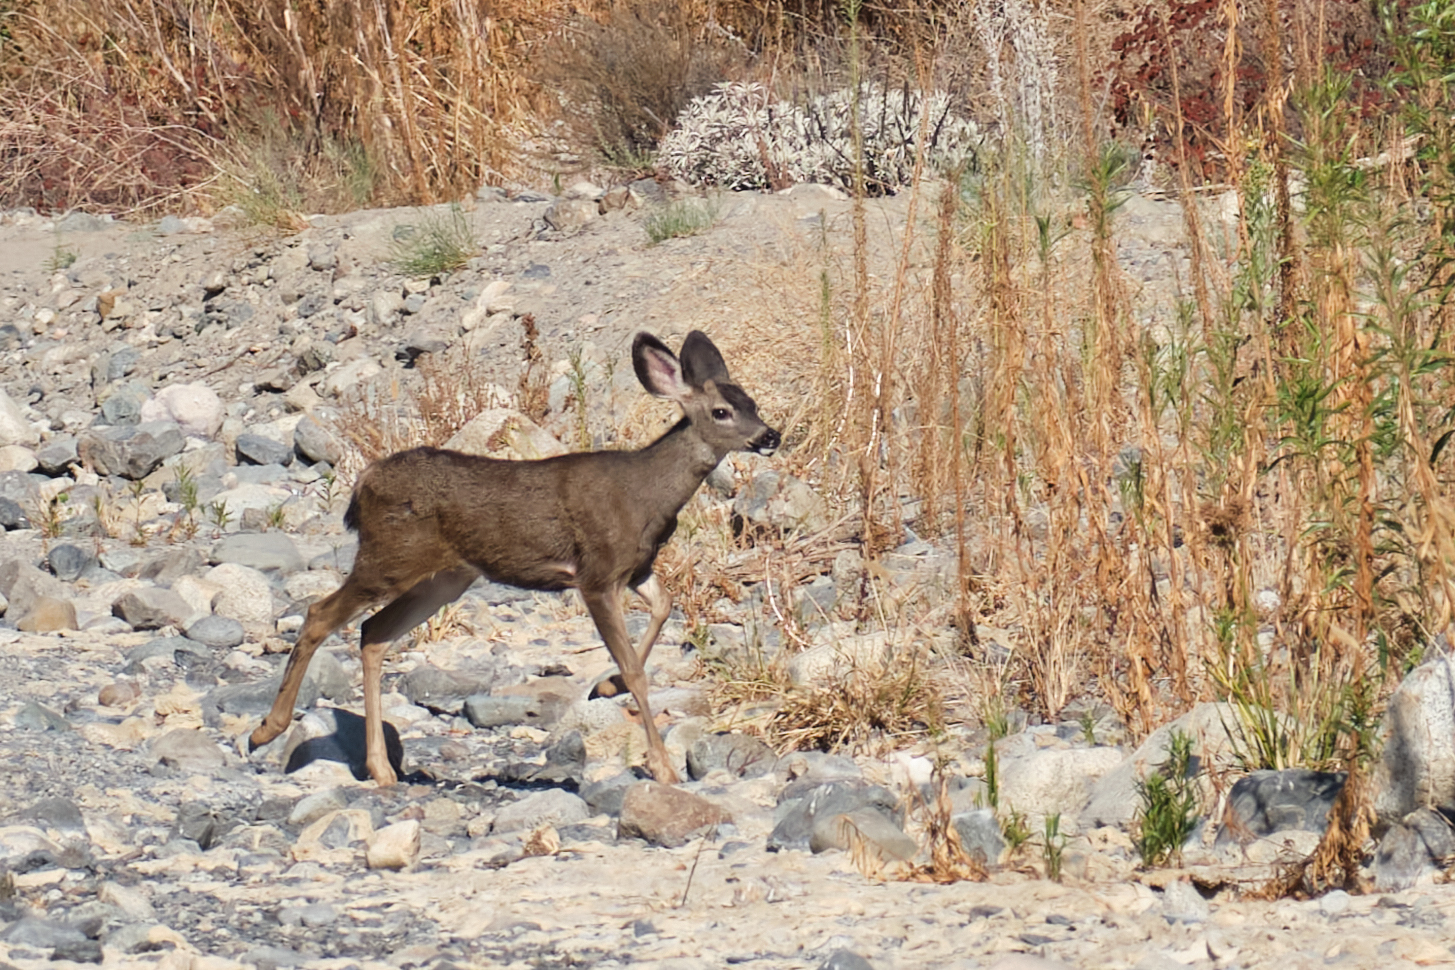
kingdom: Animalia
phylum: Chordata
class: Mammalia
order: Artiodactyla
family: Cervidae
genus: Odocoileus
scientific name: Odocoileus hemionus
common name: Mule deer
